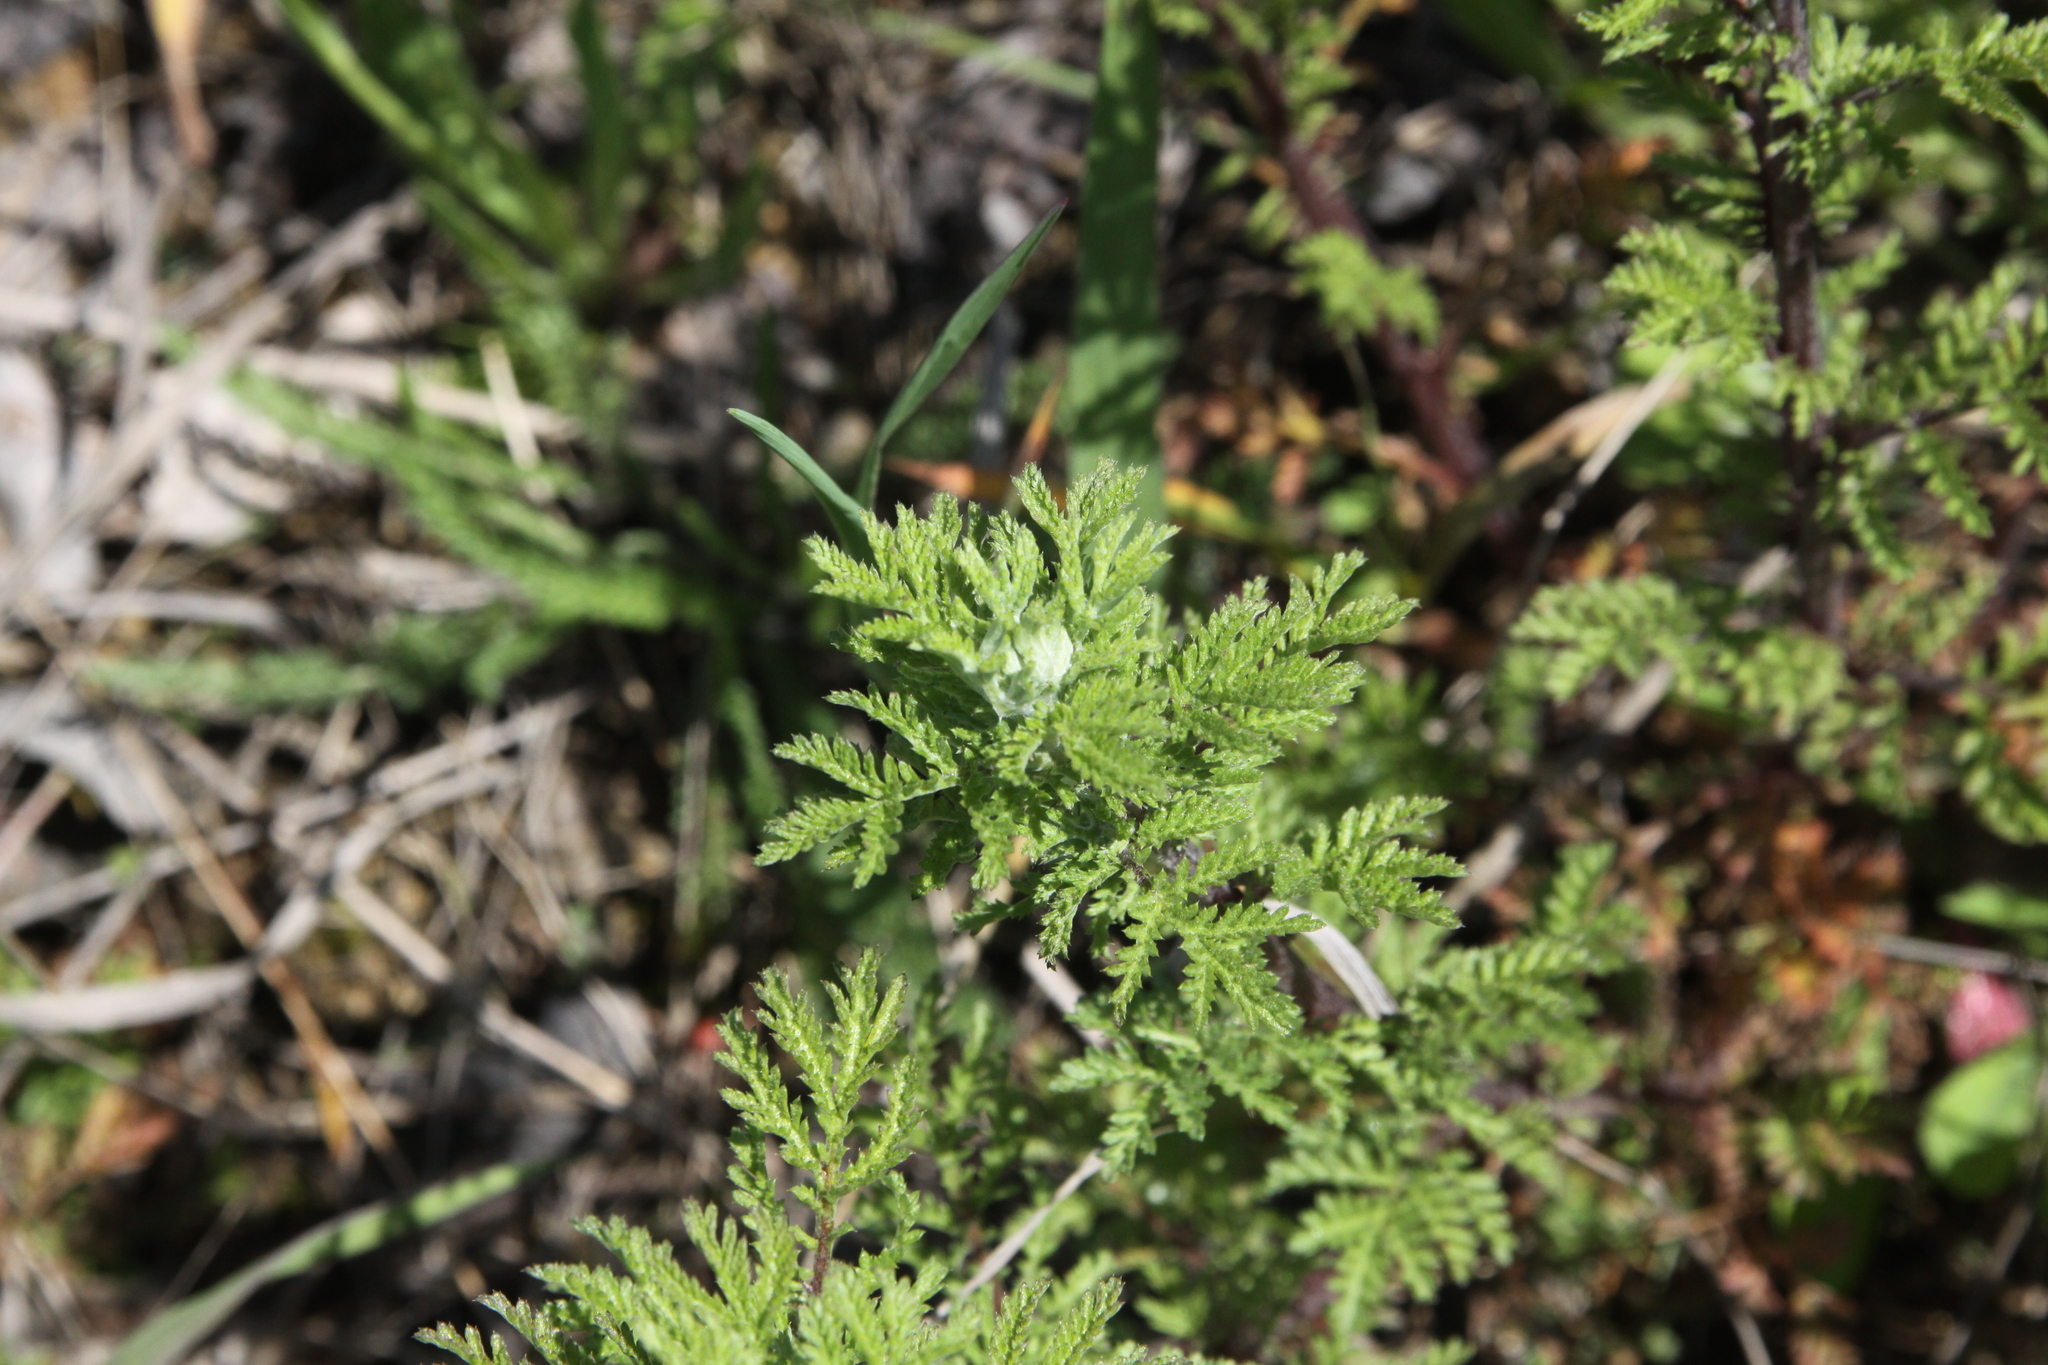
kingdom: Plantae
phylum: Tracheophyta
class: Magnoliopsida
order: Asterales
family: Asteraceae
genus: Achillea
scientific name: Achillea nobilis
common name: Noble yarrow
